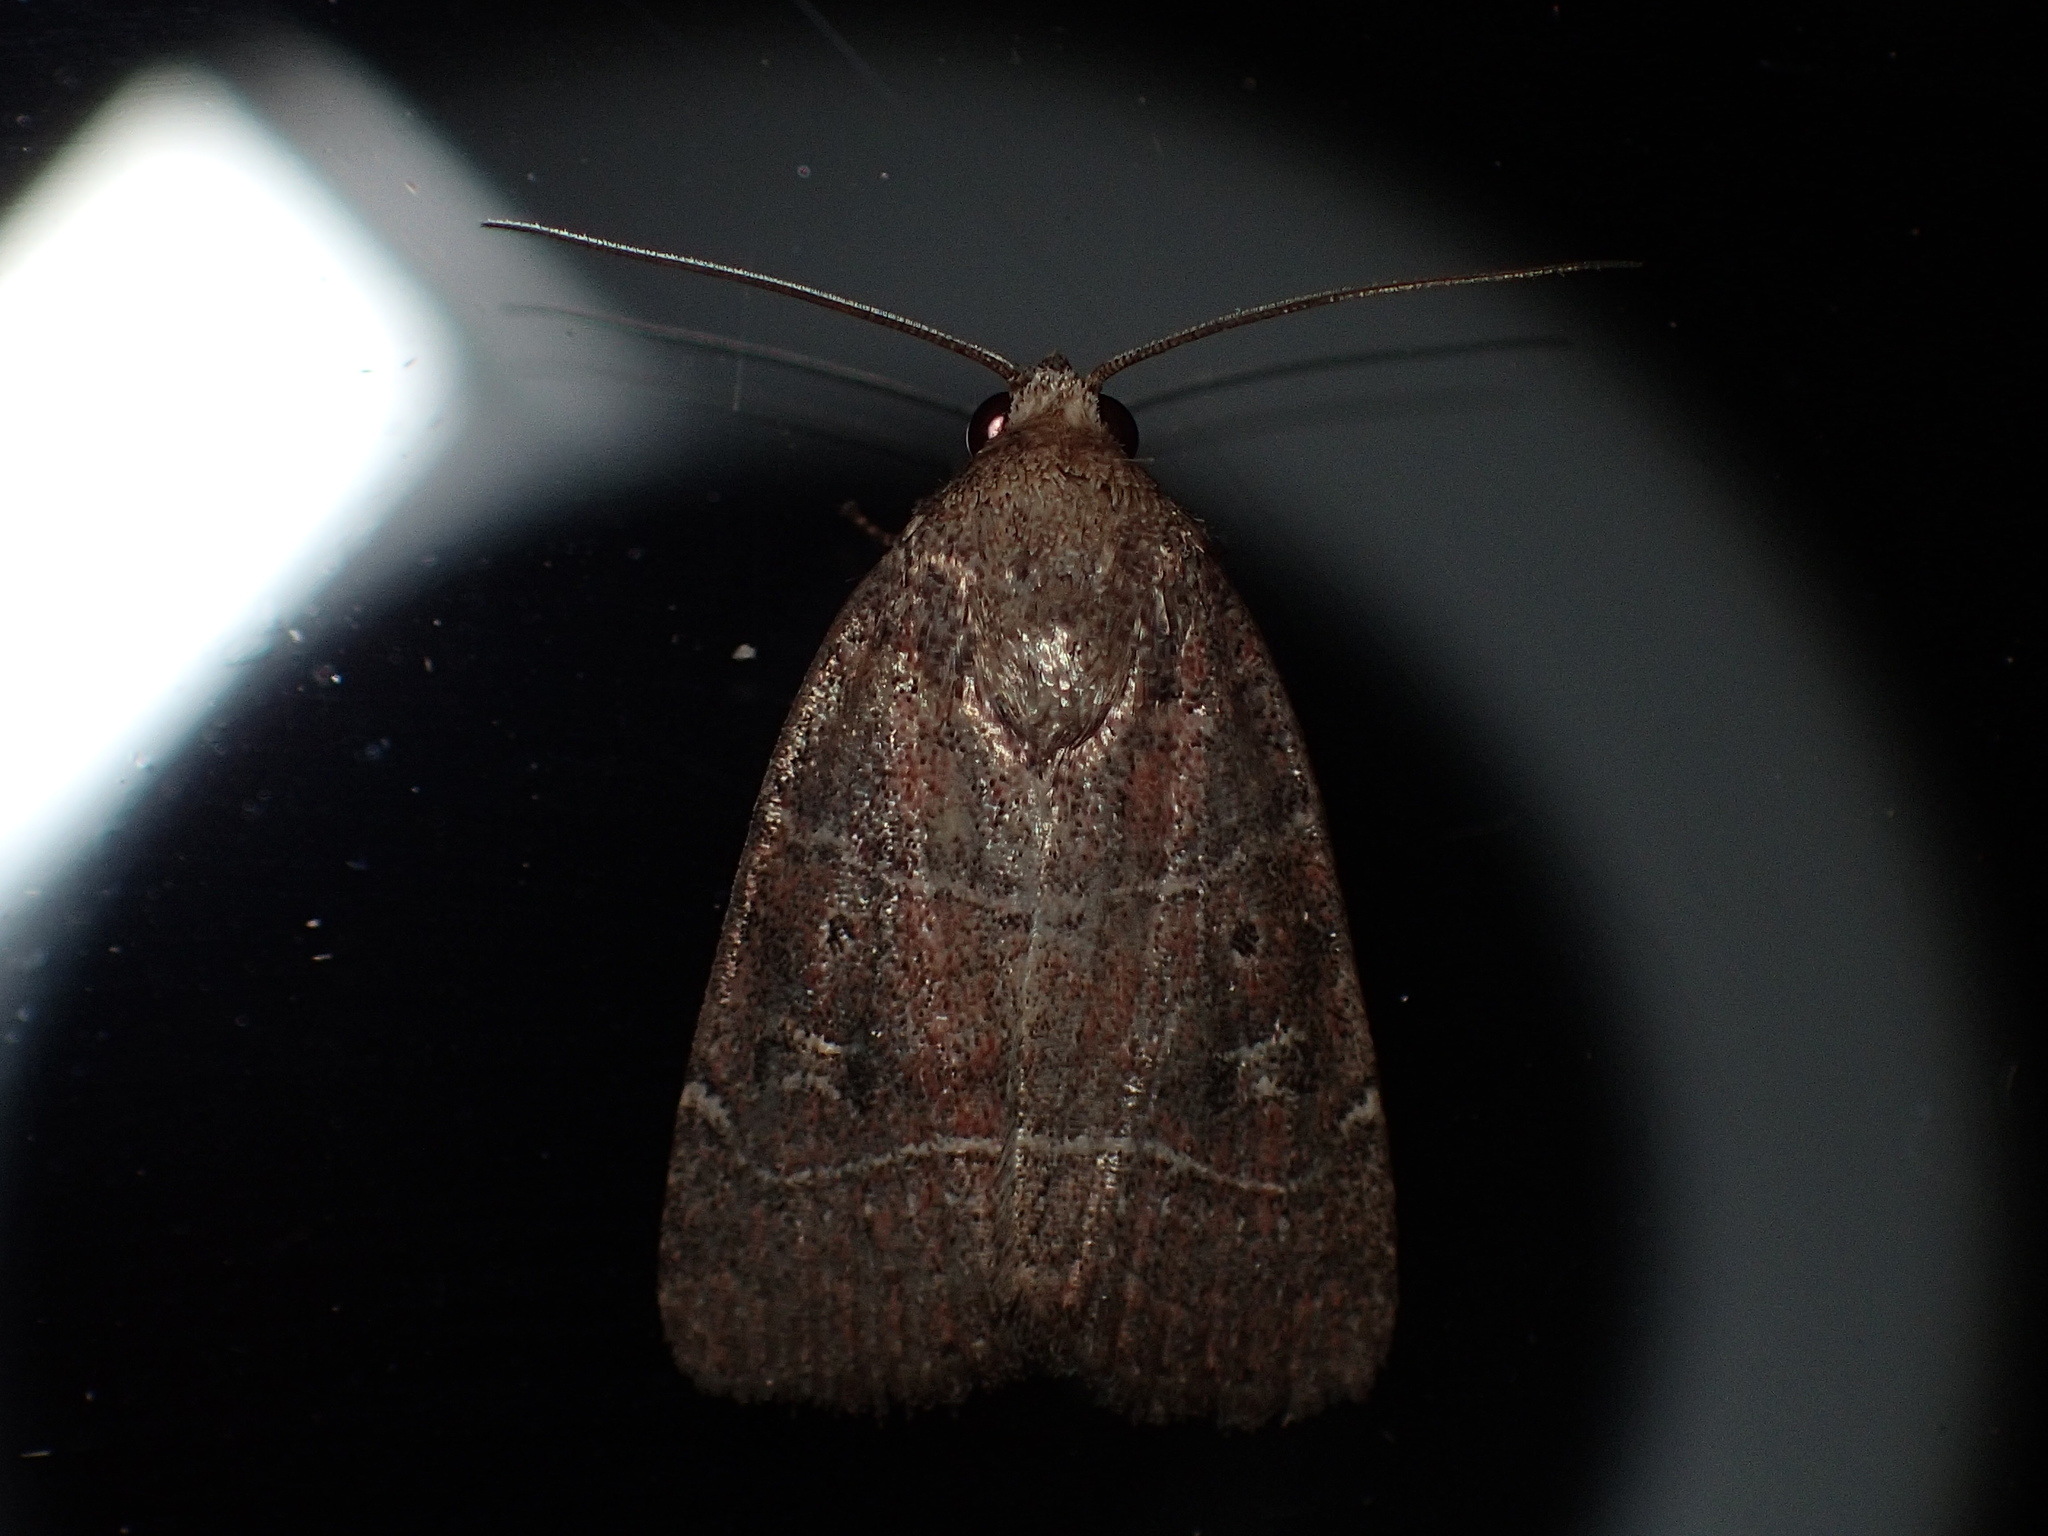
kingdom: Animalia
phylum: Arthropoda
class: Insecta
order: Lepidoptera
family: Noctuidae
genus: Elaphria
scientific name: Elaphria grata
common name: Grateful midget moth
